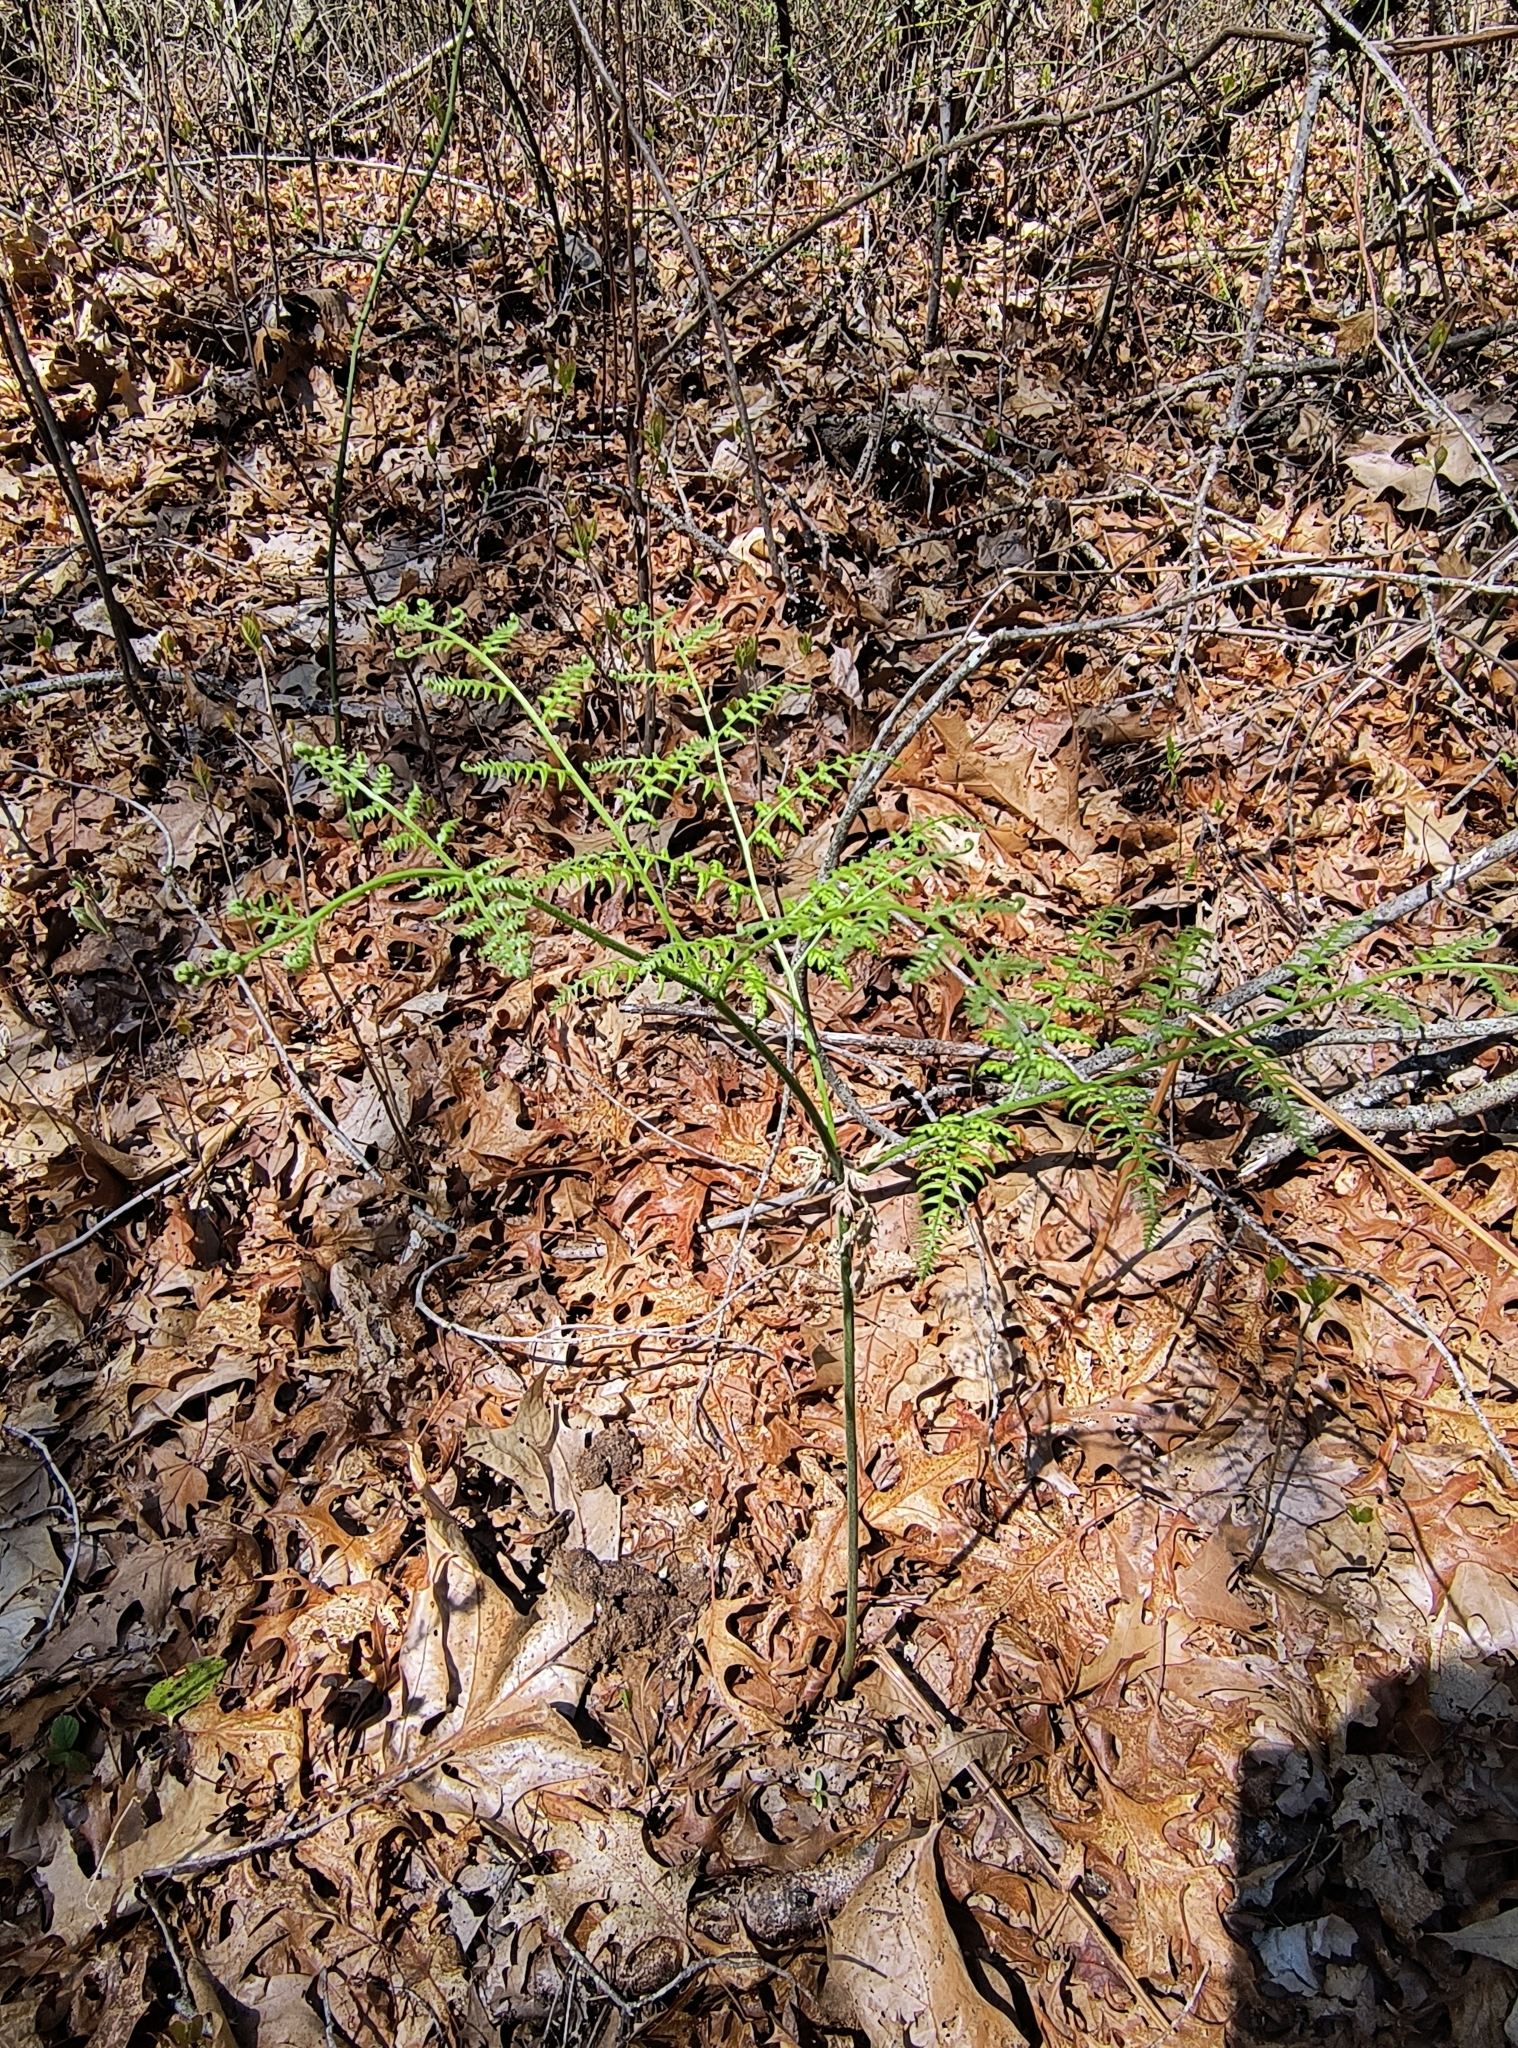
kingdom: Plantae
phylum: Tracheophyta
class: Polypodiopsida
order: Polypodiales
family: Dennstaedtiaceae
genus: Pteridium
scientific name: Pteridium aquilinum
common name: Bracken
